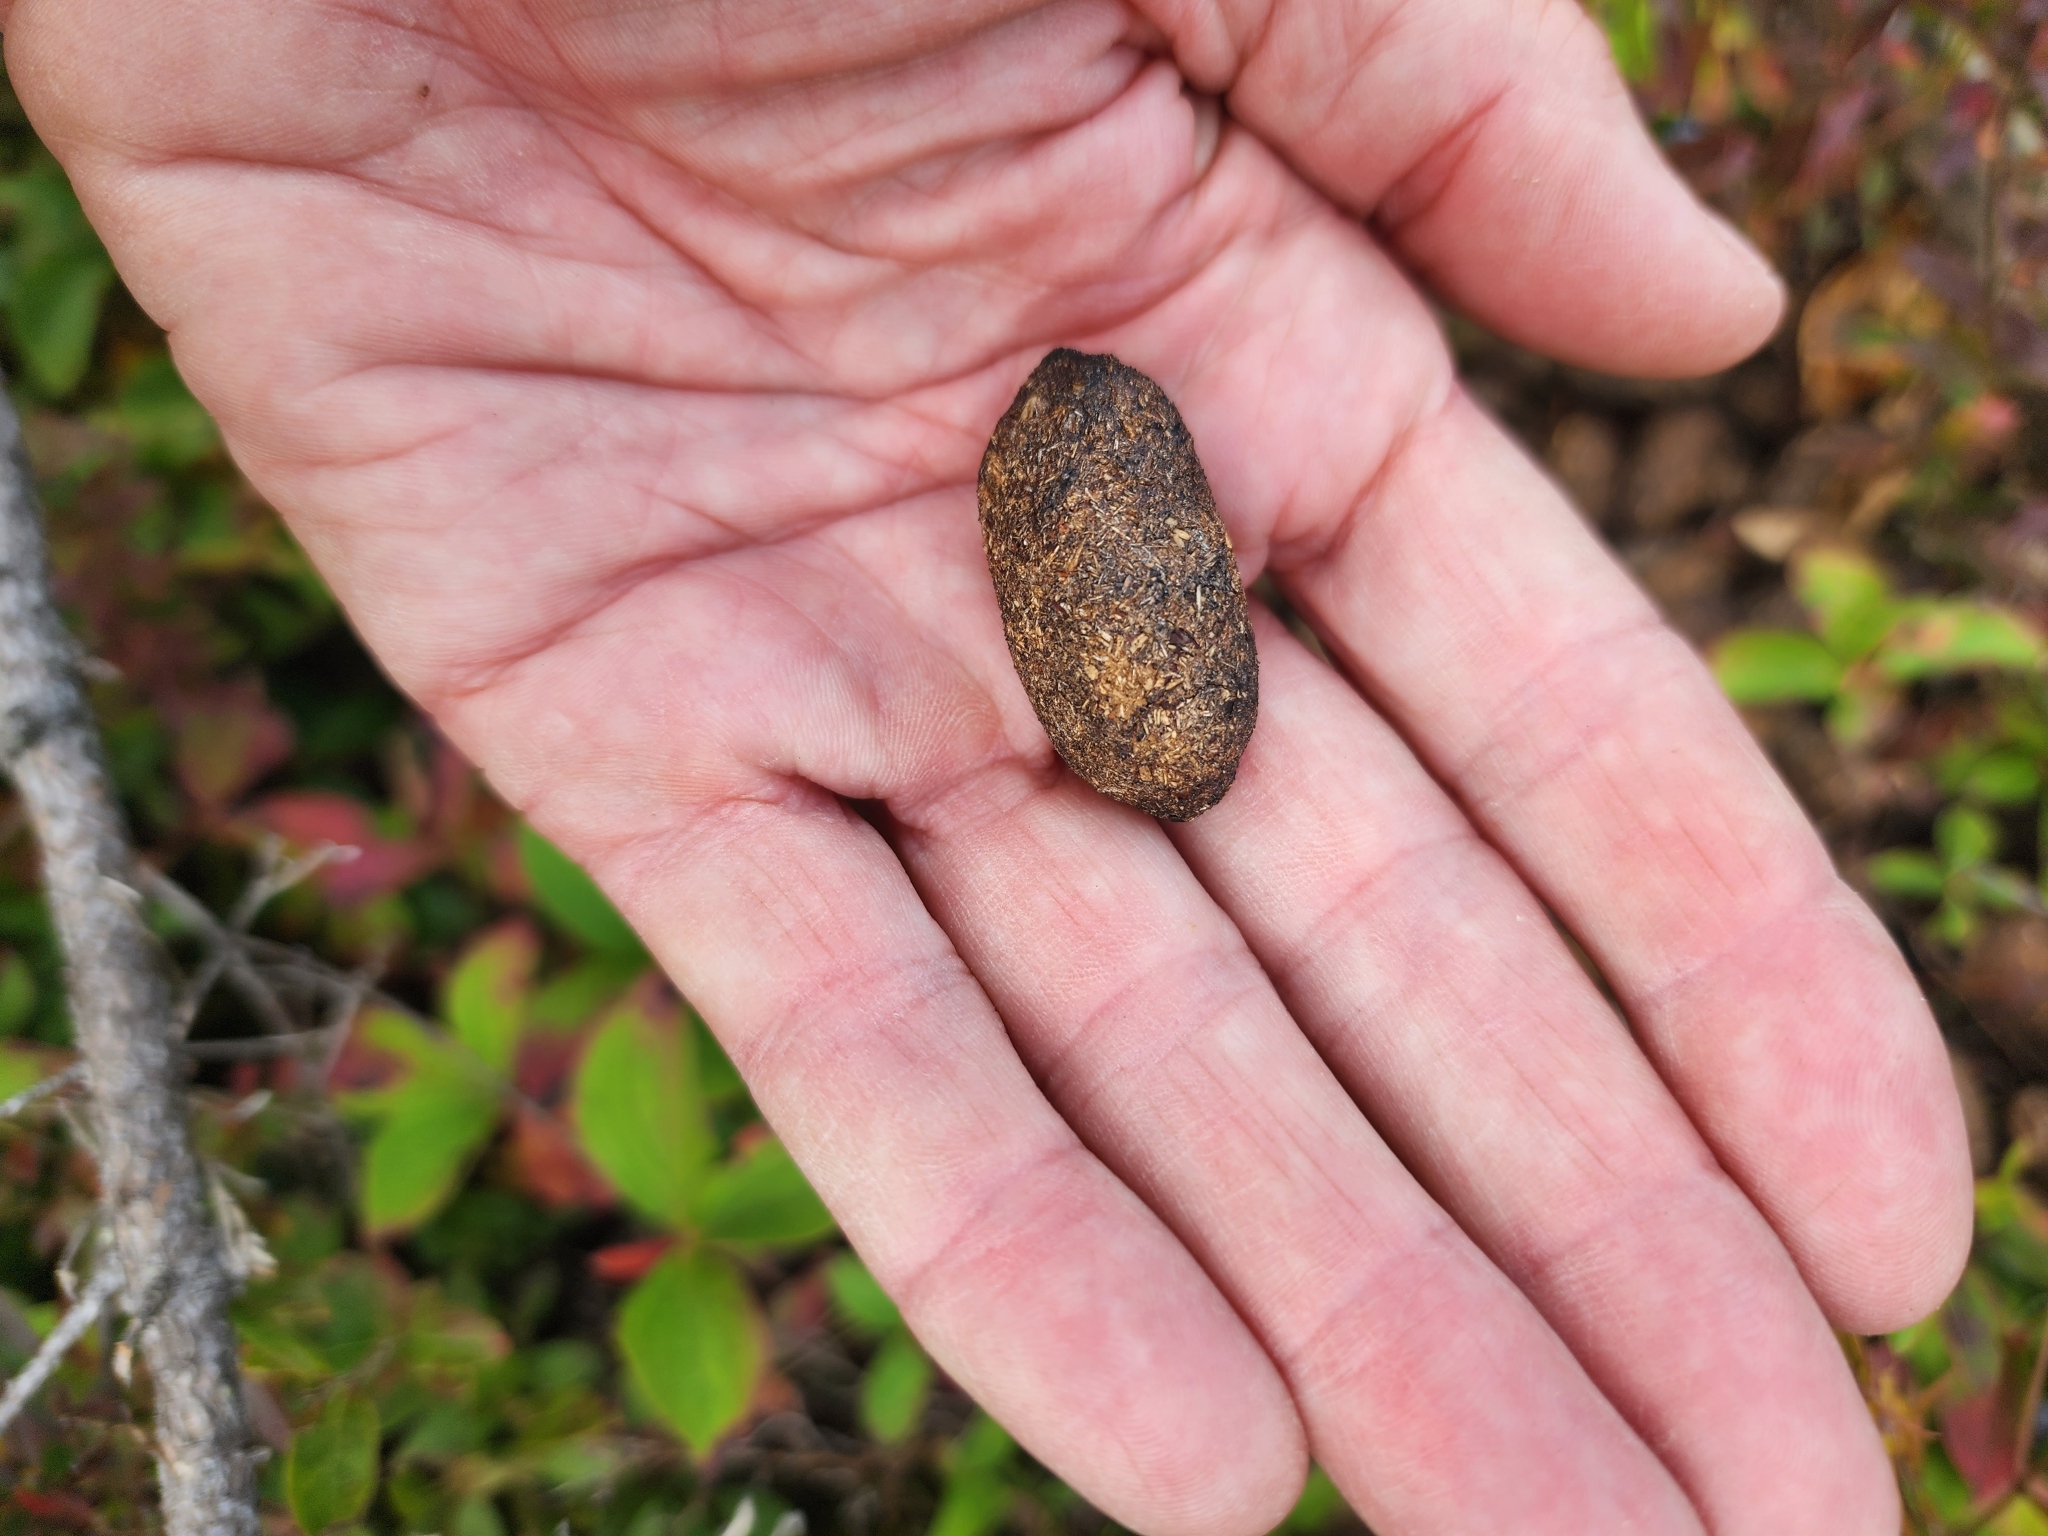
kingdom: Animalia
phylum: Chordata
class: Mammalia
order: Artiodactyla
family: Cervidae
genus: Alces
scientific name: Alces alces
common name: Moose
